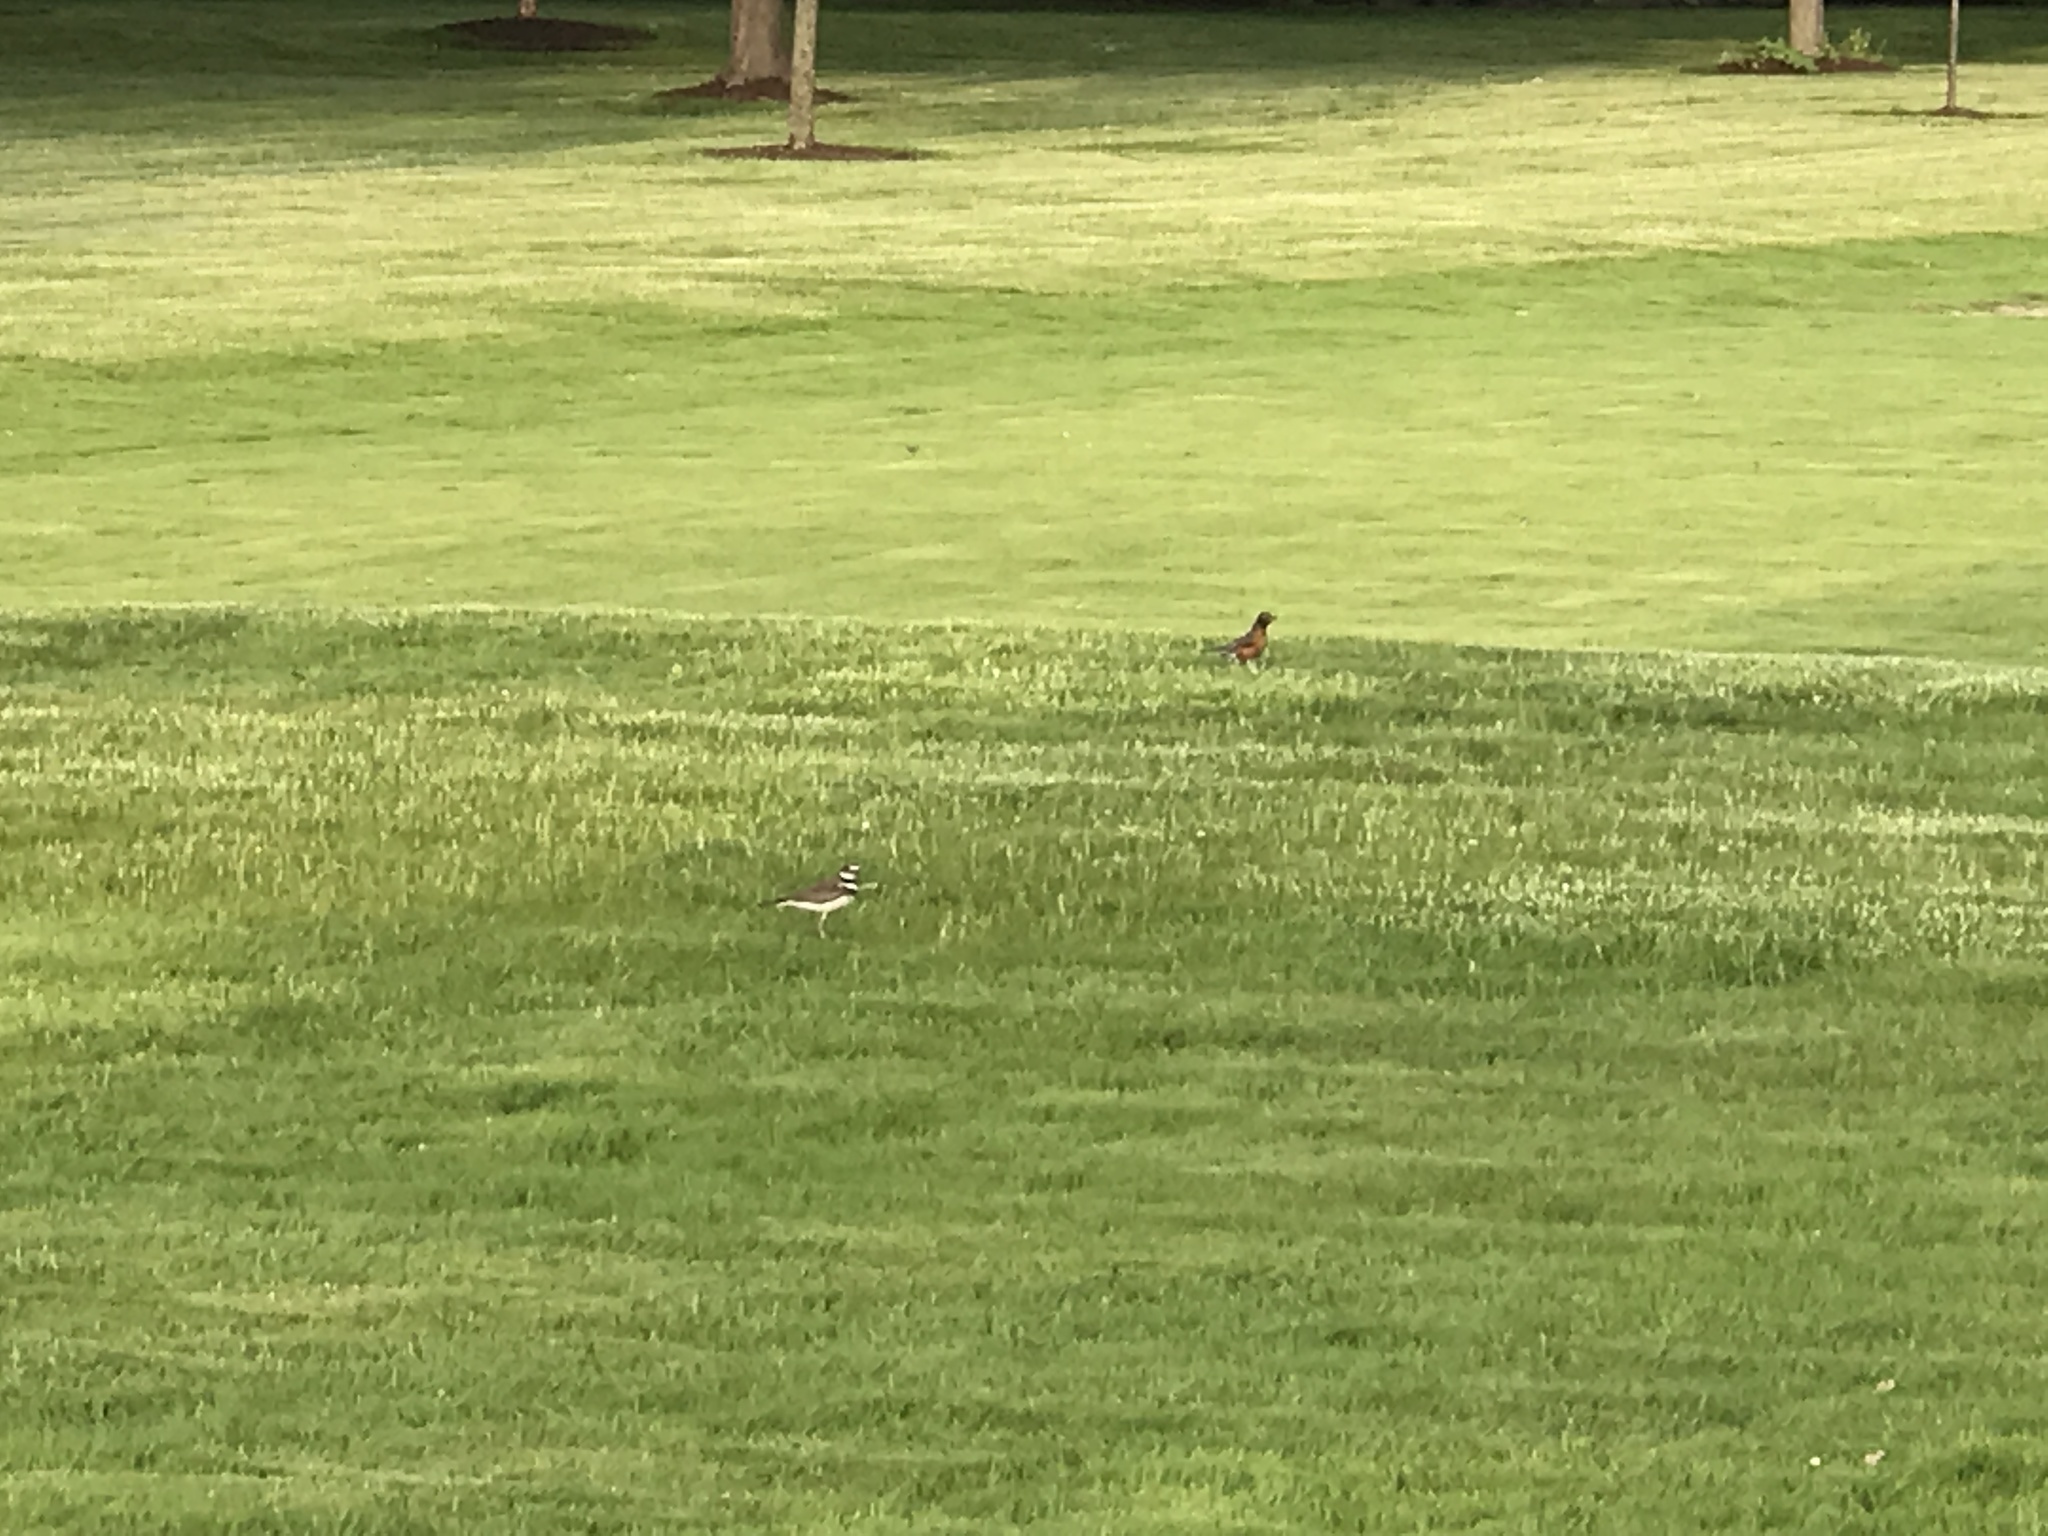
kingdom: Animalia
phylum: Chordata
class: Aves
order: Charadriiformes
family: Charadriidae
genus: Charadrius
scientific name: Charadrius vociferus
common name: Killdeer
